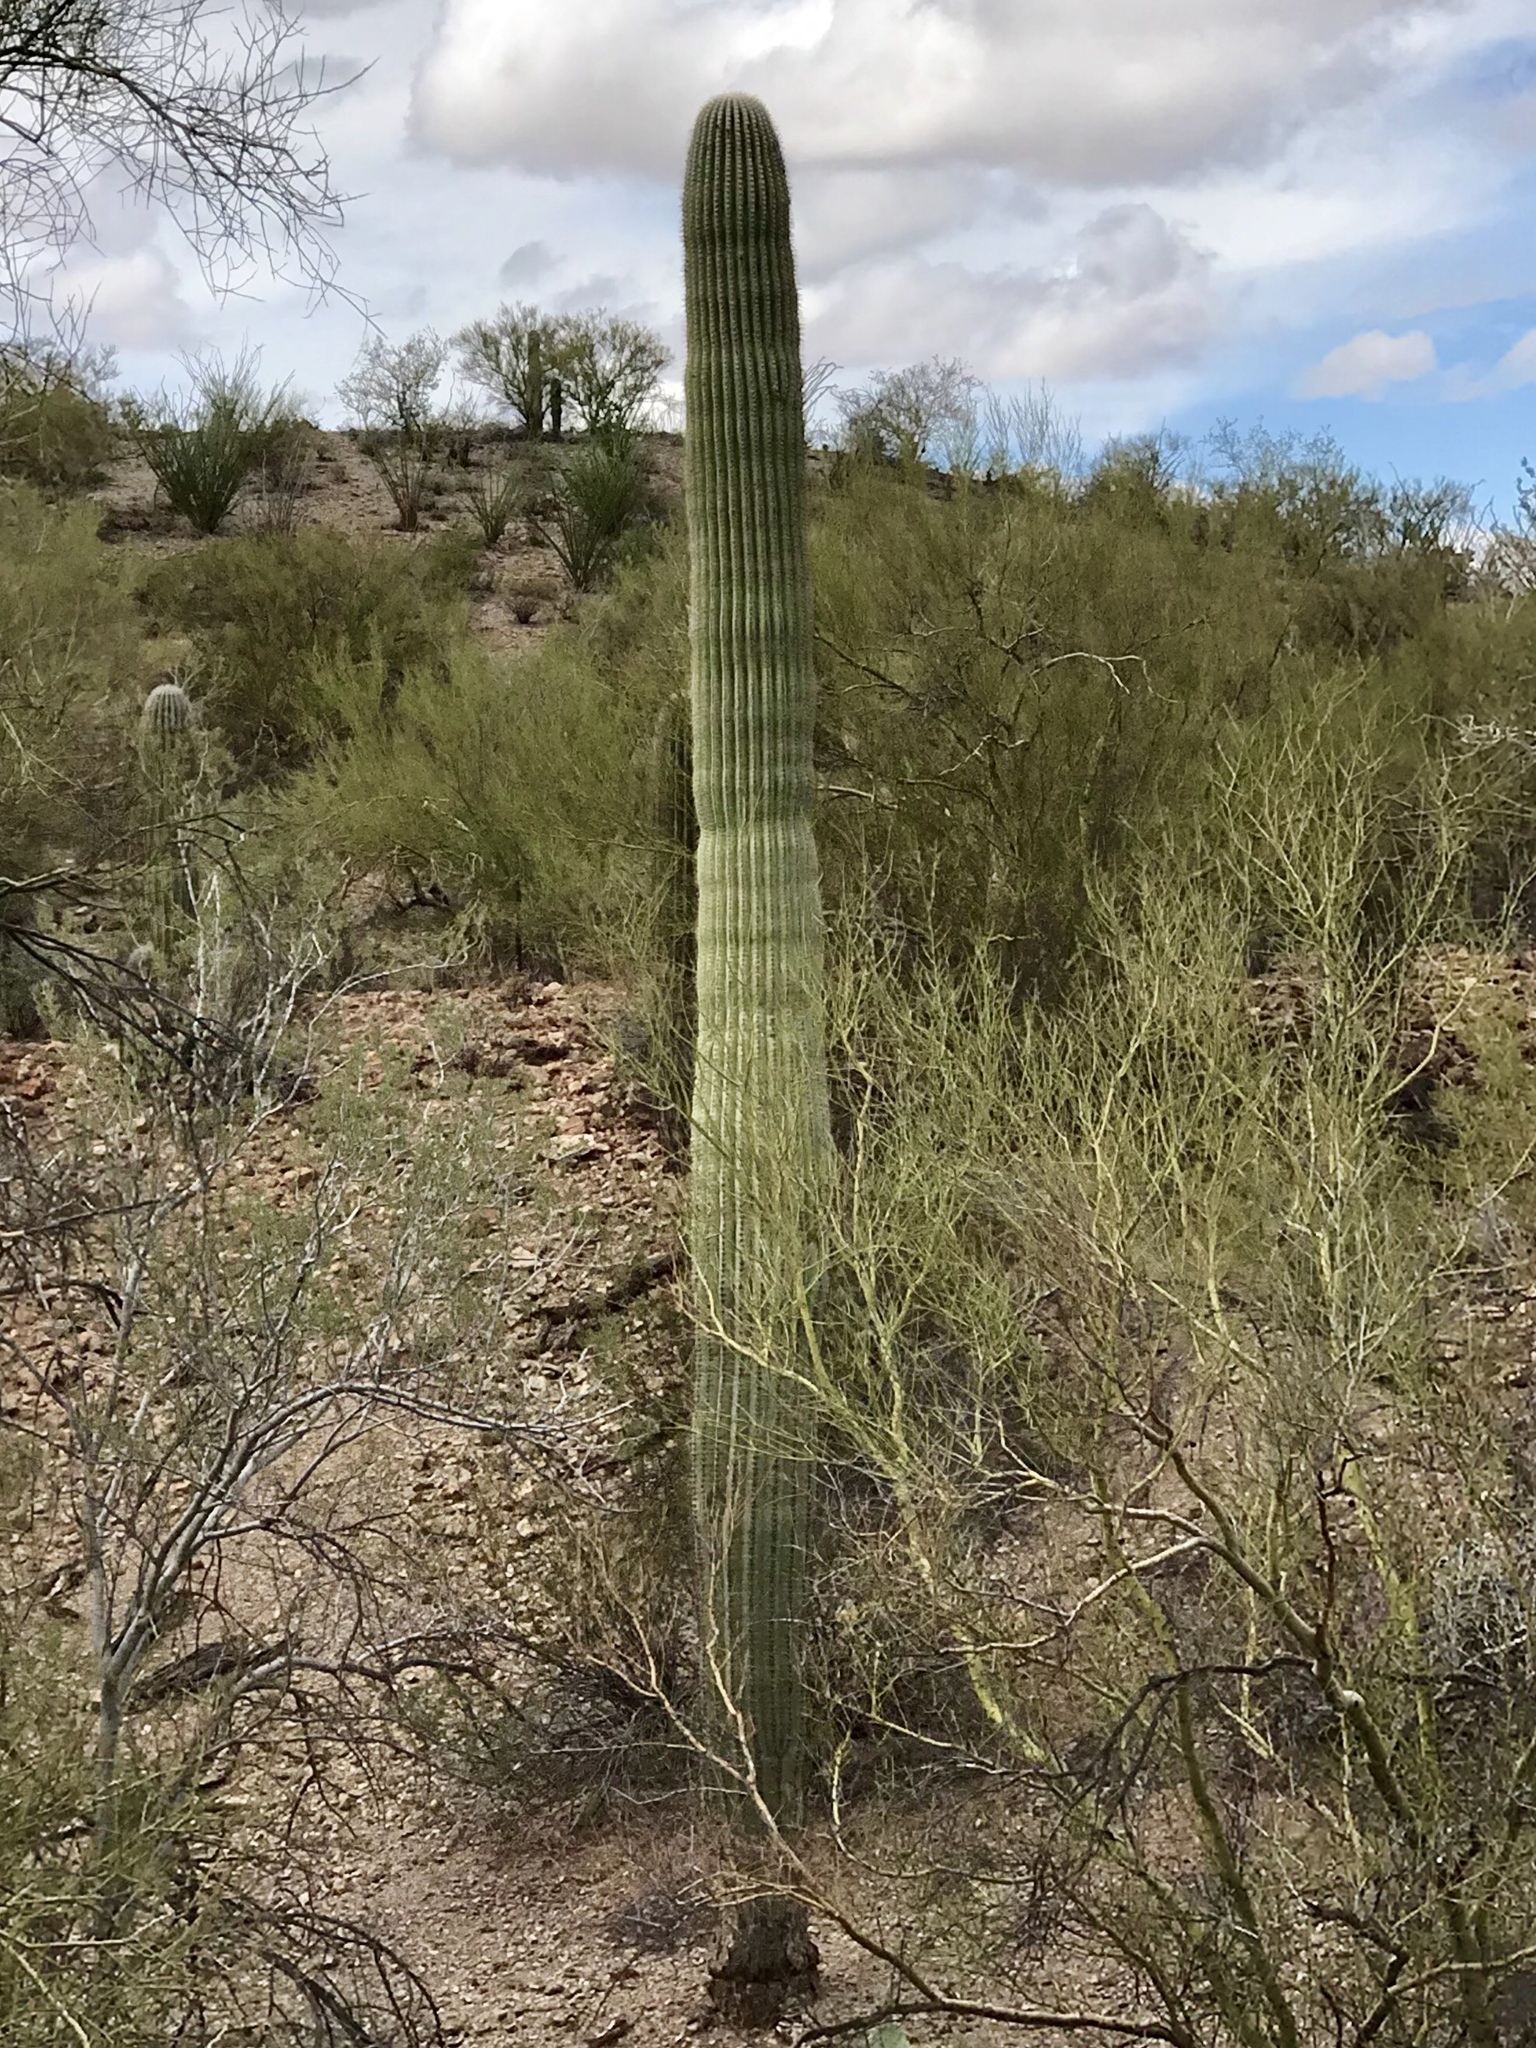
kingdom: Plantae
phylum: Tracheophyta
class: Magnoliopsida
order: Caryophyllales
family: Cactaceae
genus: Carnegiea
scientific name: Carnegiea gigantea
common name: Saguaro
